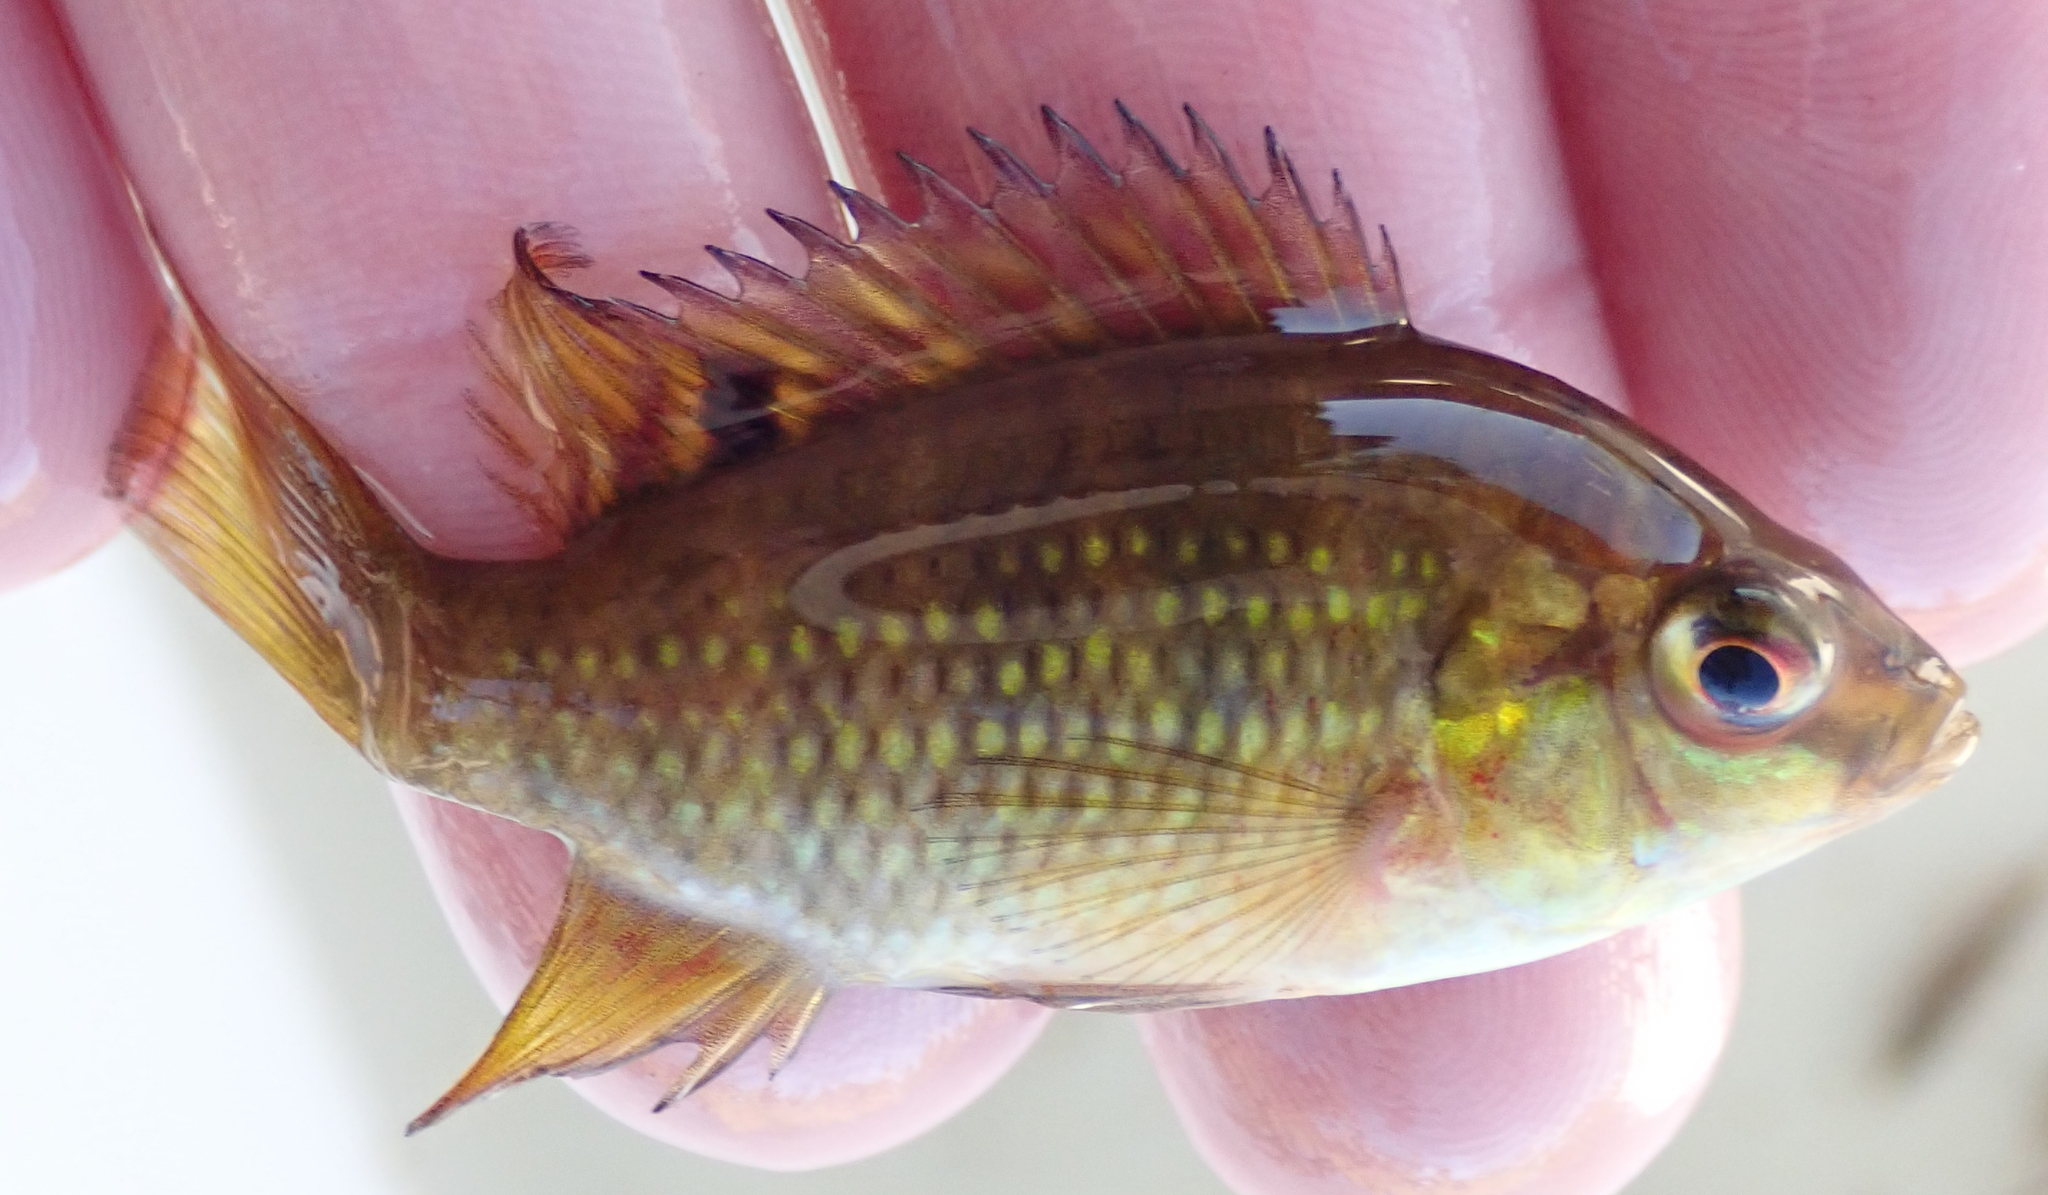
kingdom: Animalia
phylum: Chordata
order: Perciformes
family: Cichlidae
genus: Tilapia
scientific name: Tilapia sparrmanii
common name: Banded tilapia
